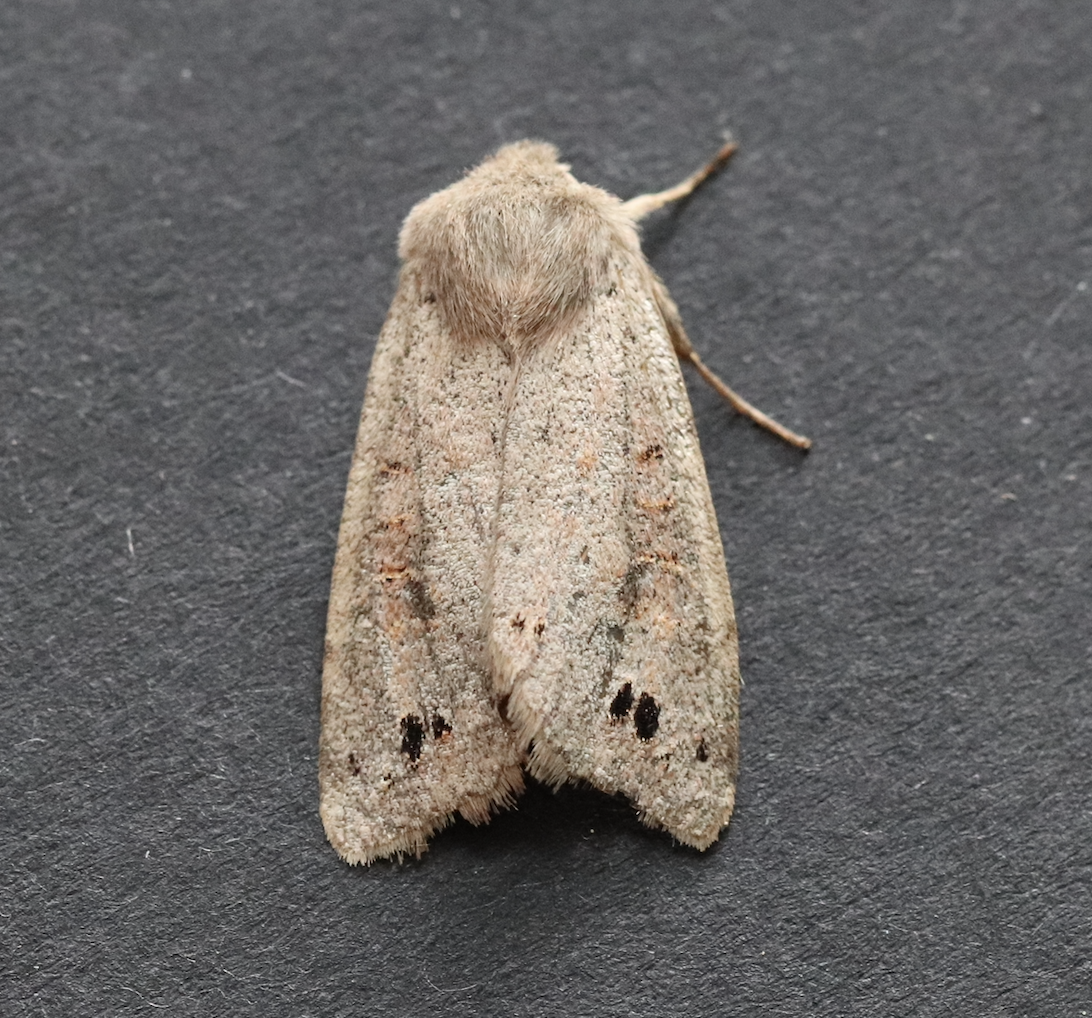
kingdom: Animalia
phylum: Arthropoda
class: Insecta
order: Lepidoptera
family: Noctuidae
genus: Anorthoa
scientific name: Anorthoa munda
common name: Twin-spotted quaker
